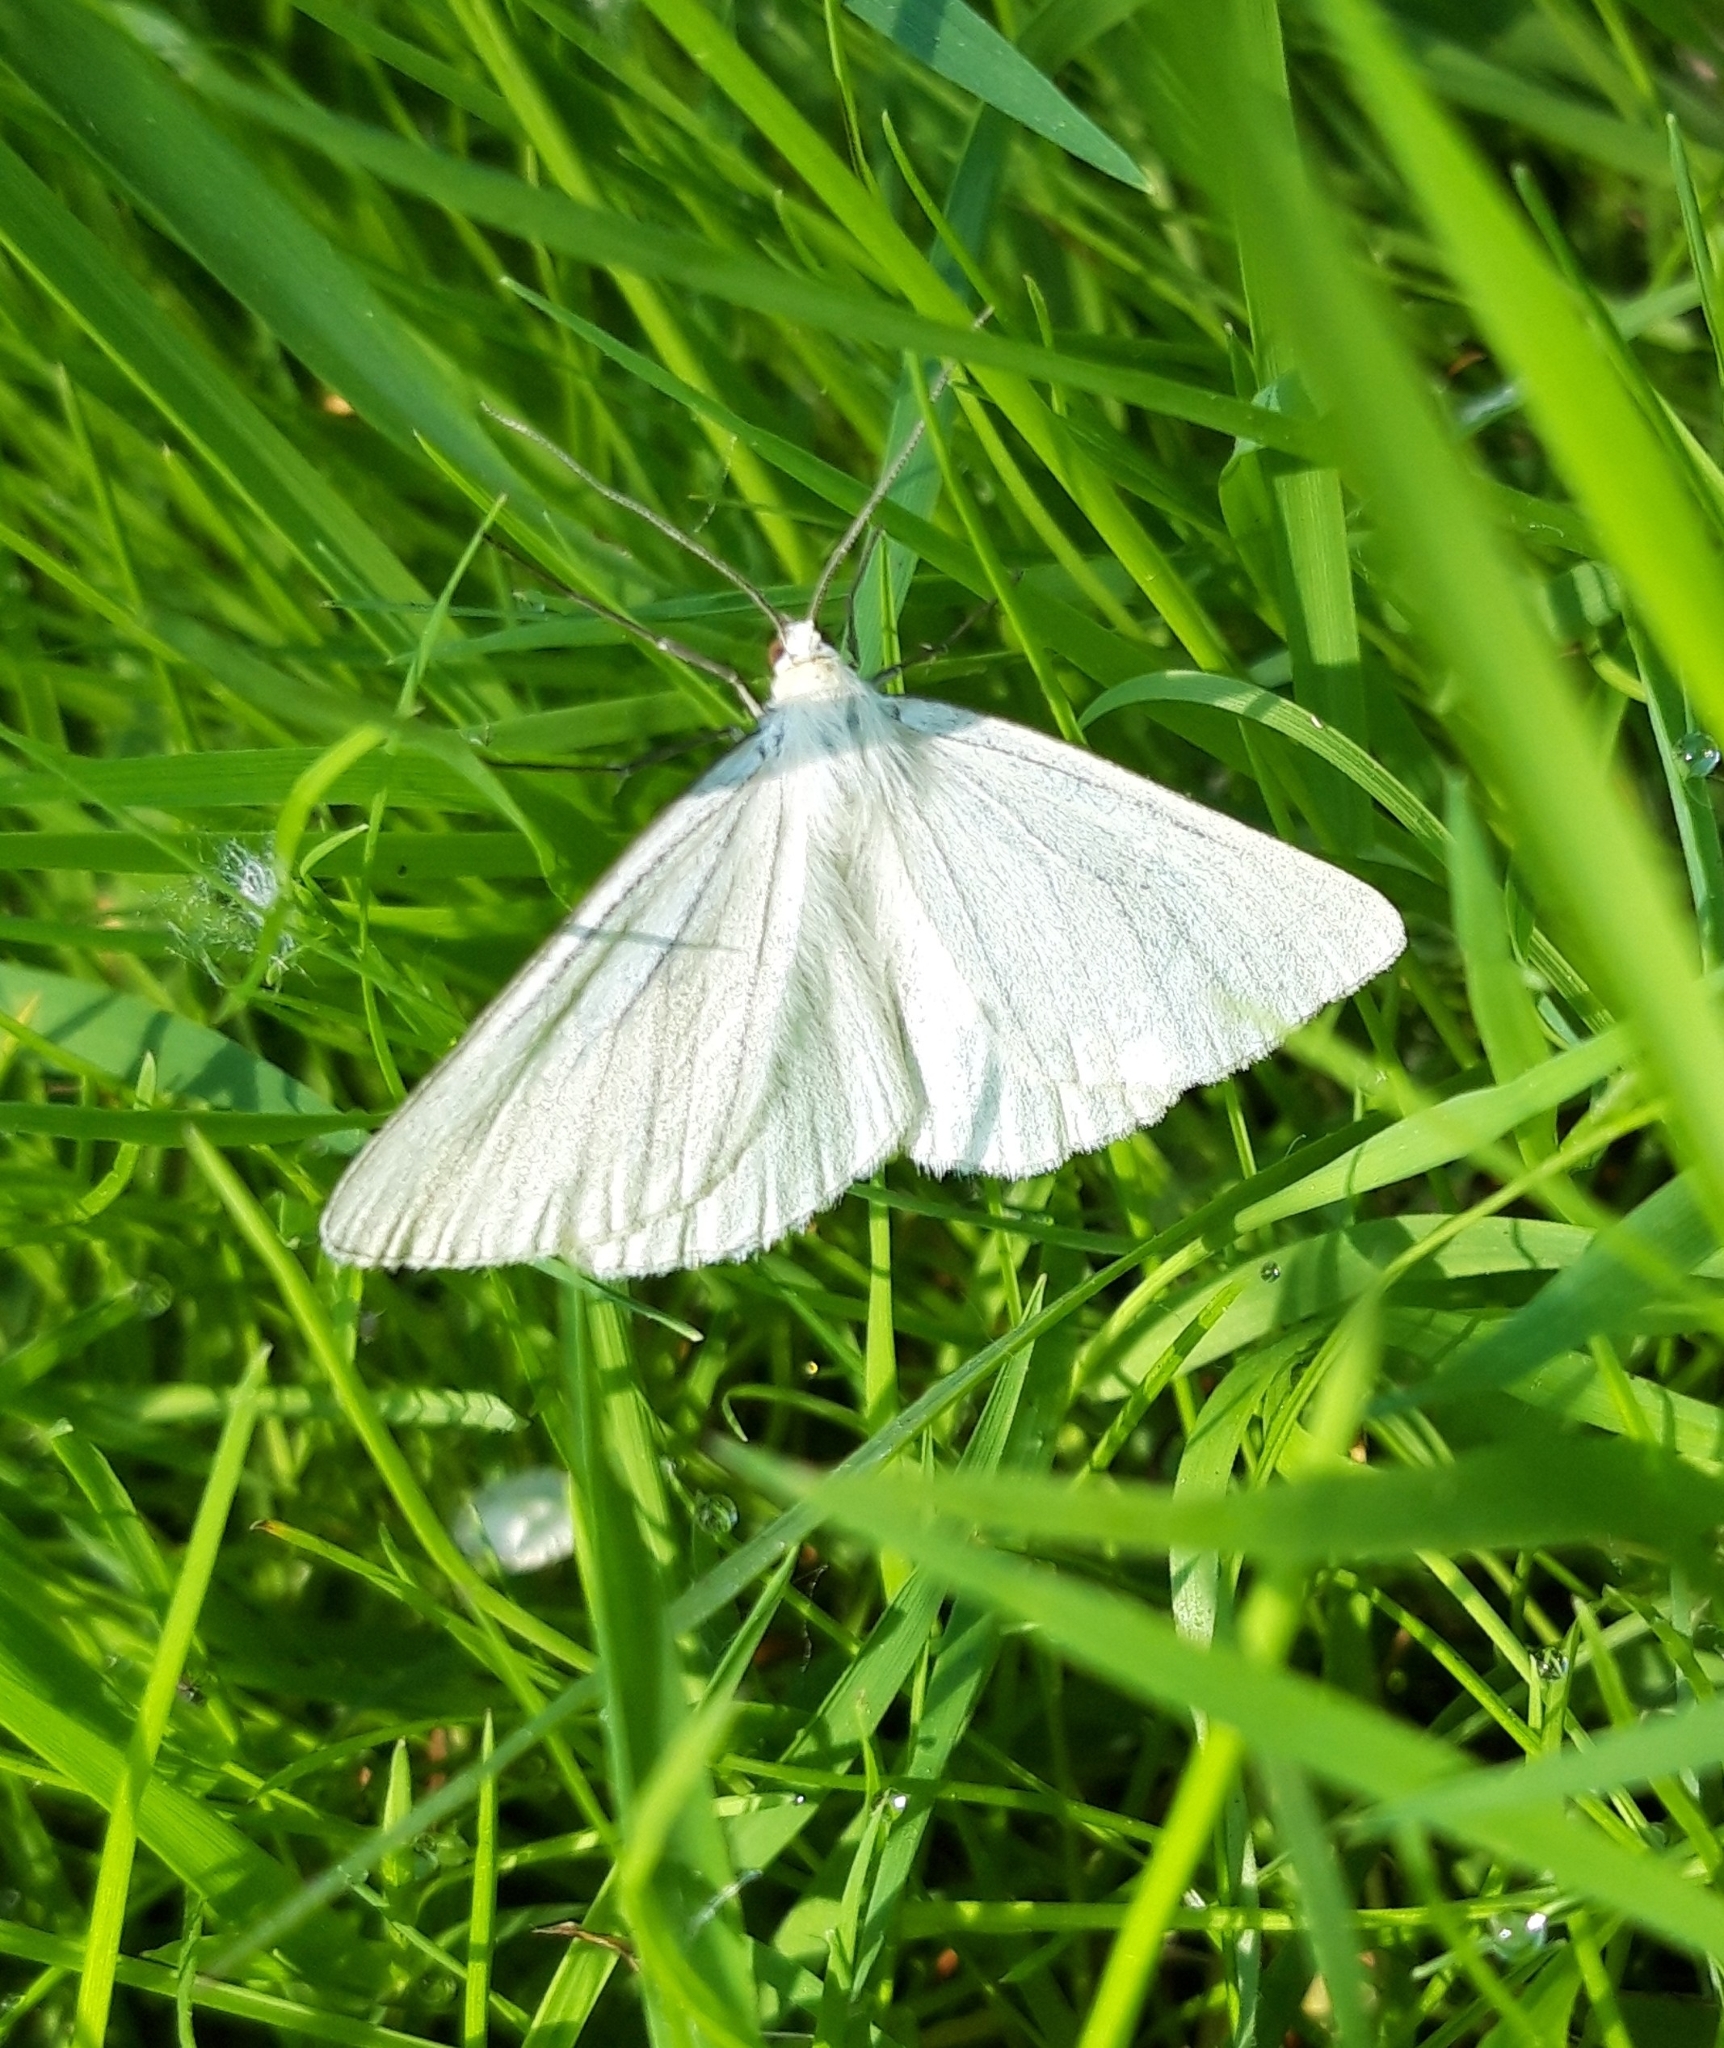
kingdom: Animalia
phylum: Arthropoda
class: Insecta
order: Lepidoptera
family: Geometridae
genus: Siona
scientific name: Siona lineata
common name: Black-veined moth
